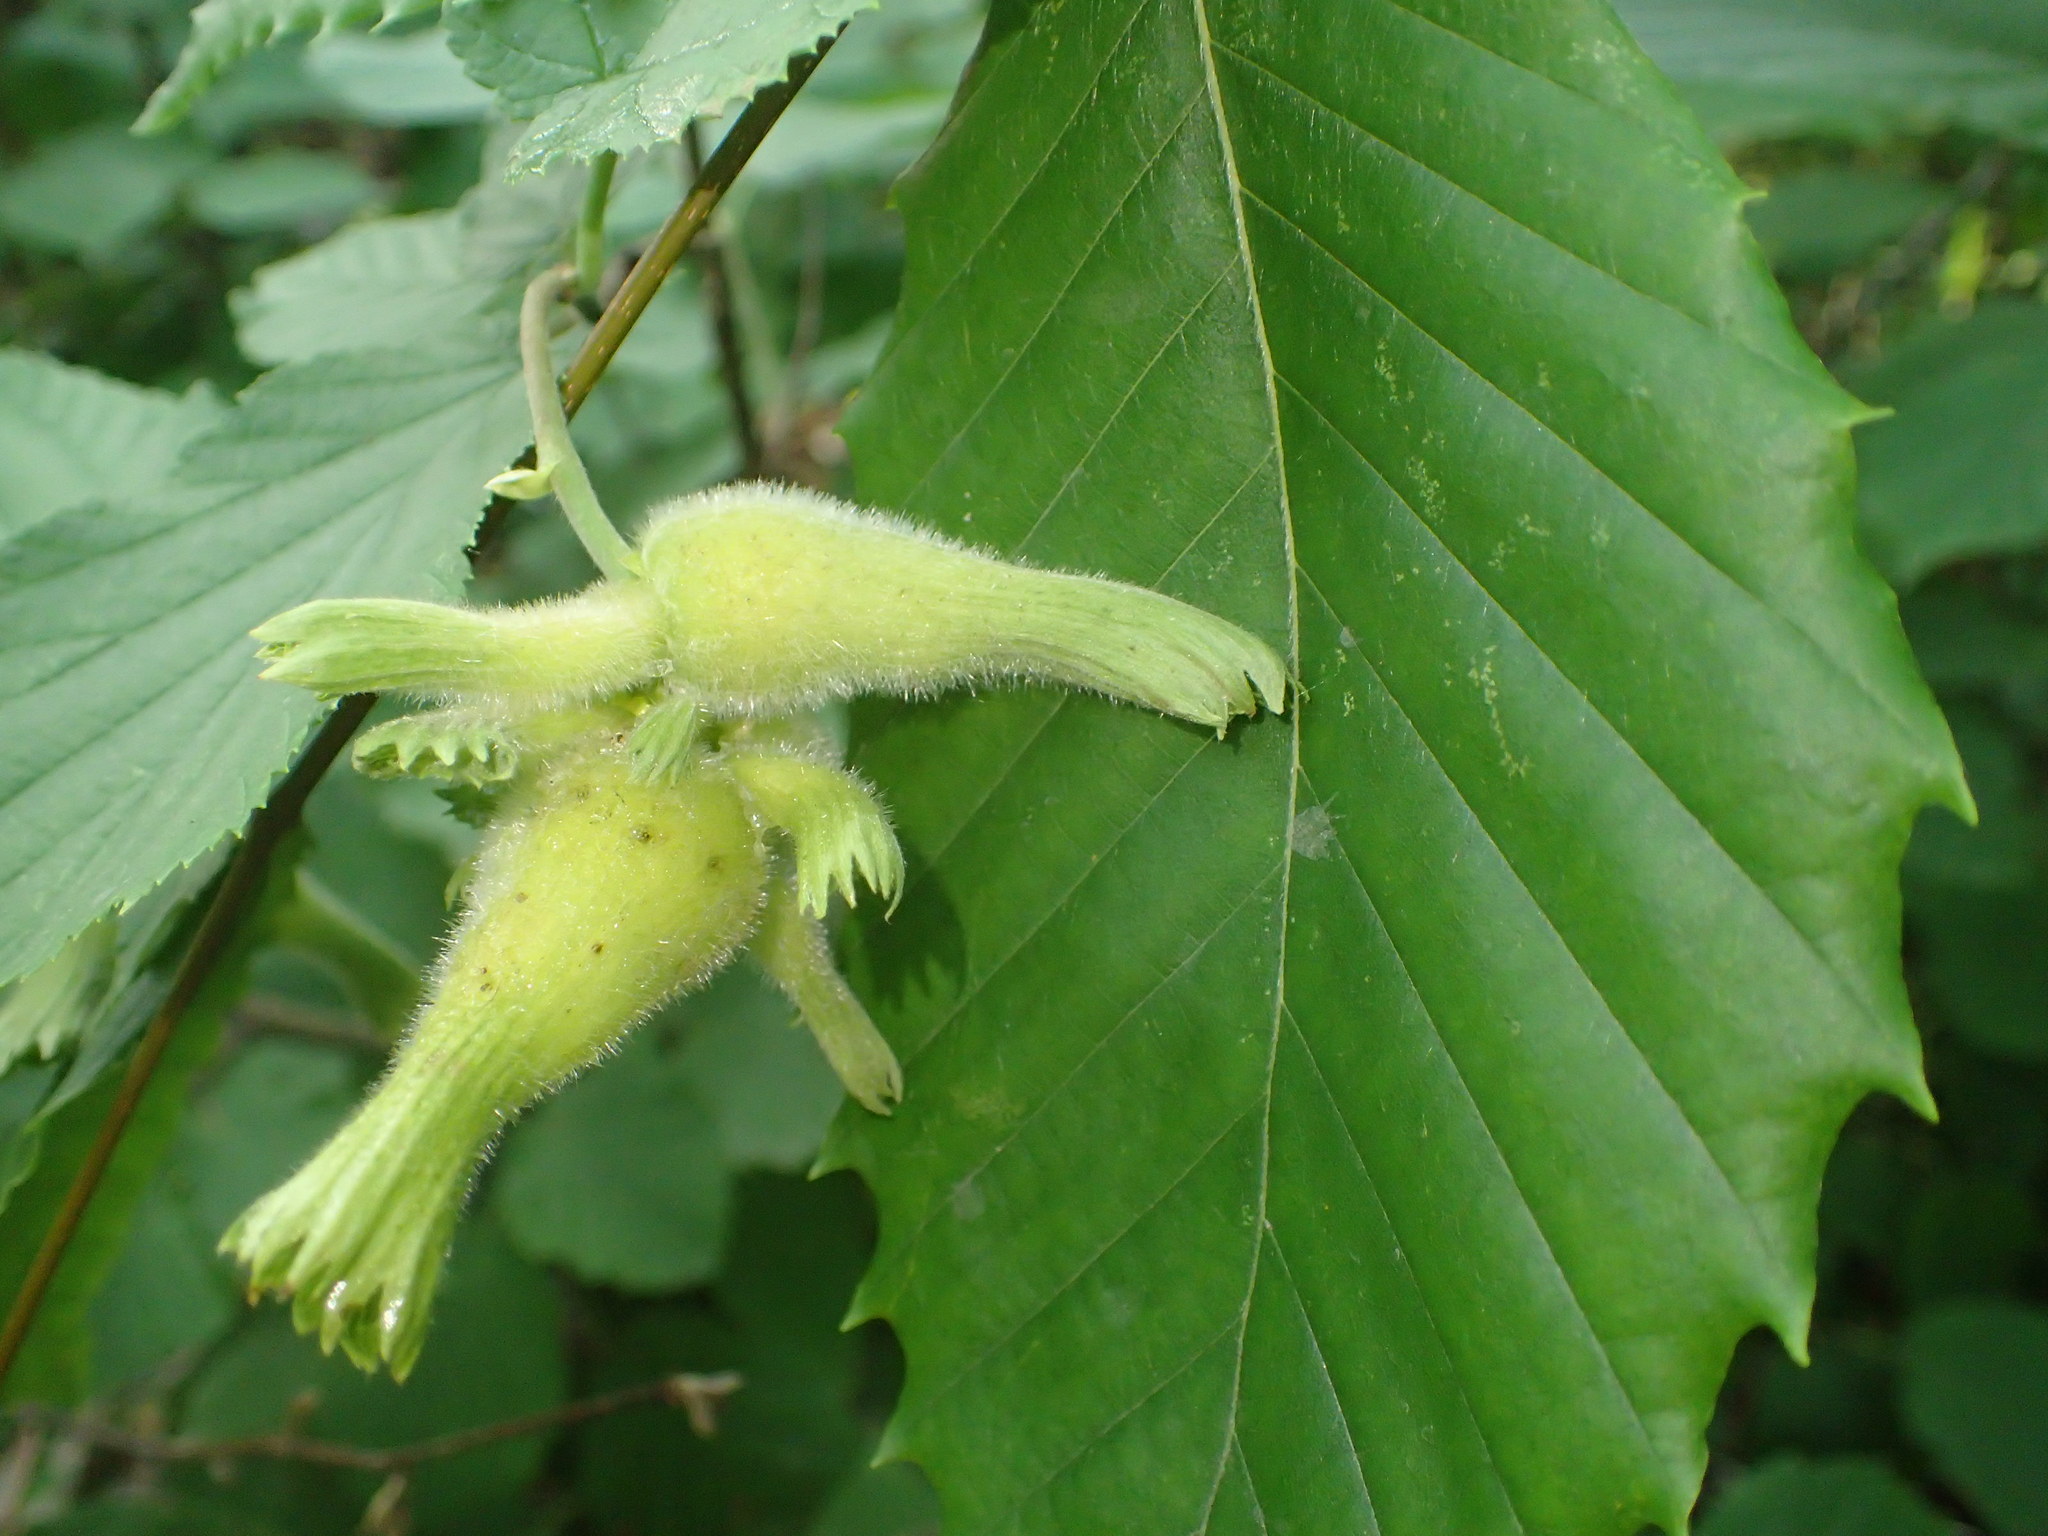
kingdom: Plantae
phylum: Tracheophyta
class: Magnoliopsida
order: Fagales
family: Betulaceae
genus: Corylus
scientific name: Corylus cornuta
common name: Beaked hazel
